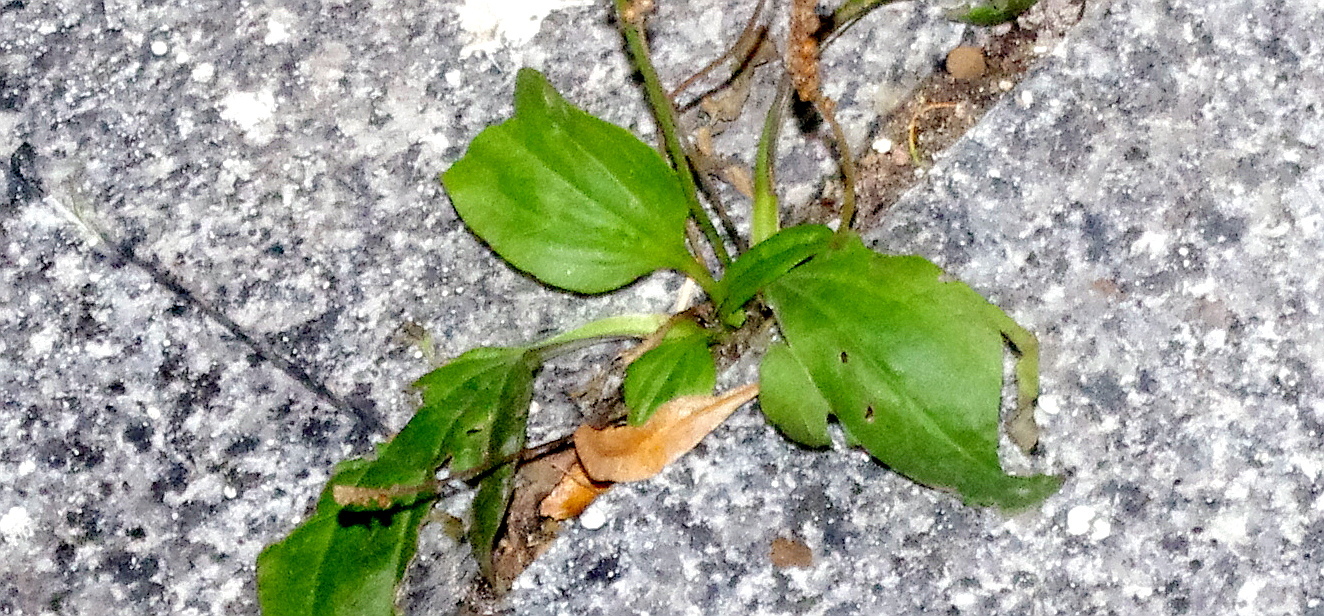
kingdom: Plantae
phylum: Tracheophyta
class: Magnoliopsida
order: Lamiales
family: Plantaginaceae
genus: Plantago
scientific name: Plantago major
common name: Common plantain
